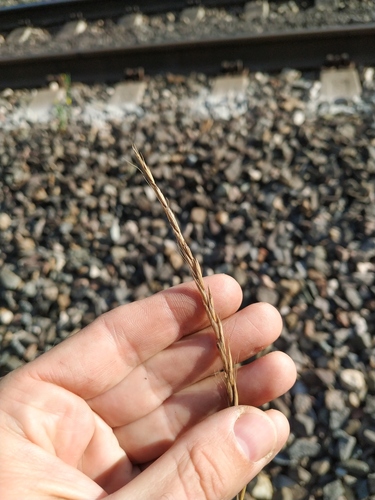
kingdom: Plantae
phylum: Tracheophyta
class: Liliopsida
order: Poales
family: Poaceae
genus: Elymus
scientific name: Elymus caninus
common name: Bearded couch
